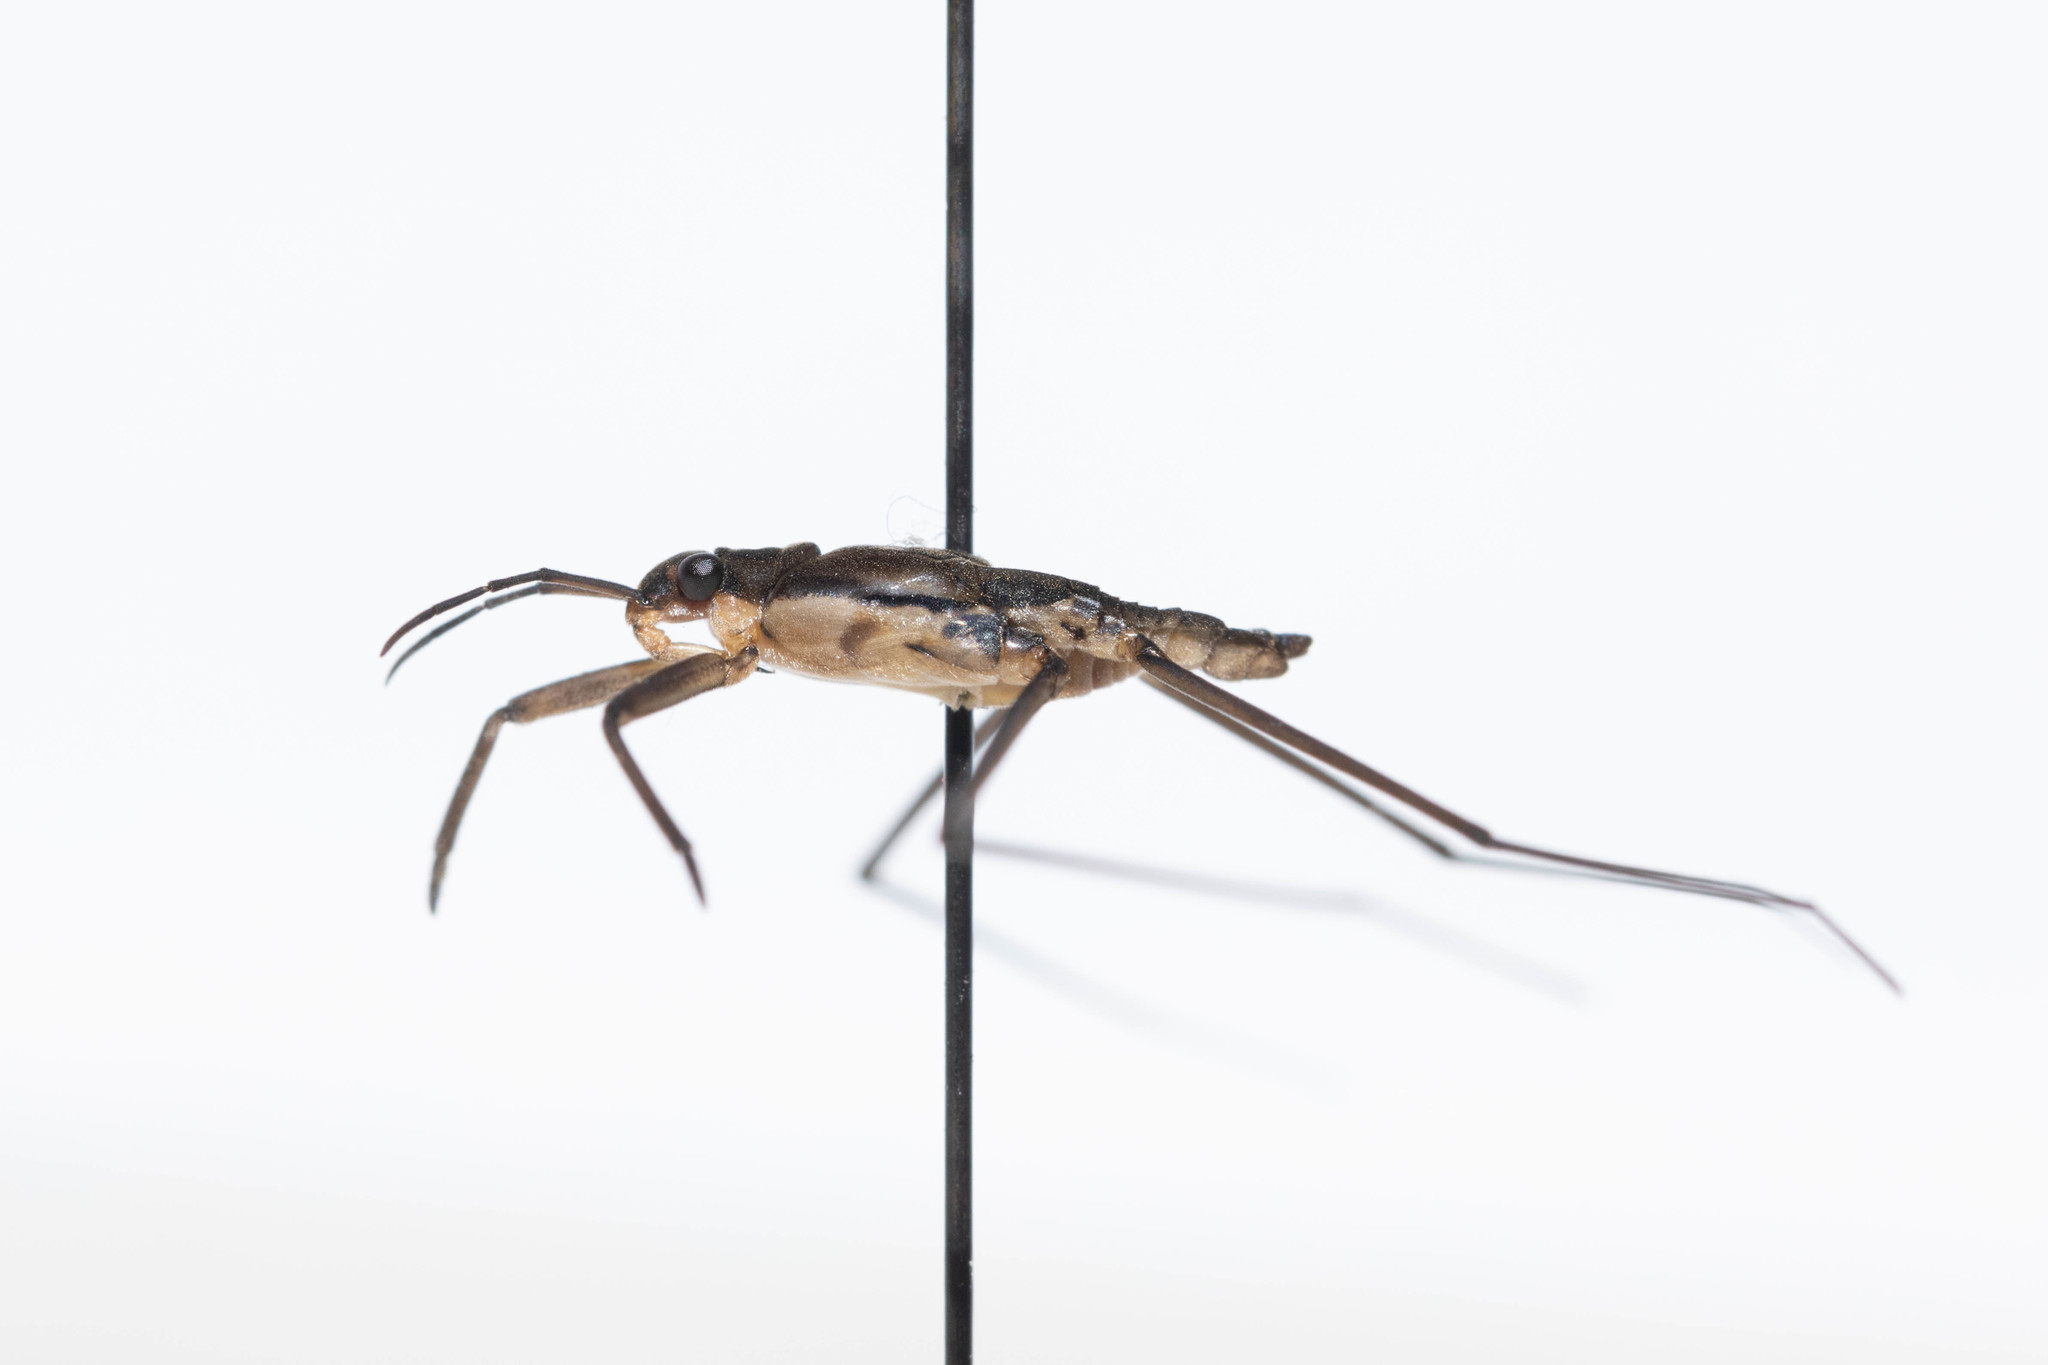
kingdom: Animalia
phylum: Arthropoda
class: Insecta
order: Hemiptera
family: Gerridae
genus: Aquarius
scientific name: Aquarius remigis
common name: Common water strider
